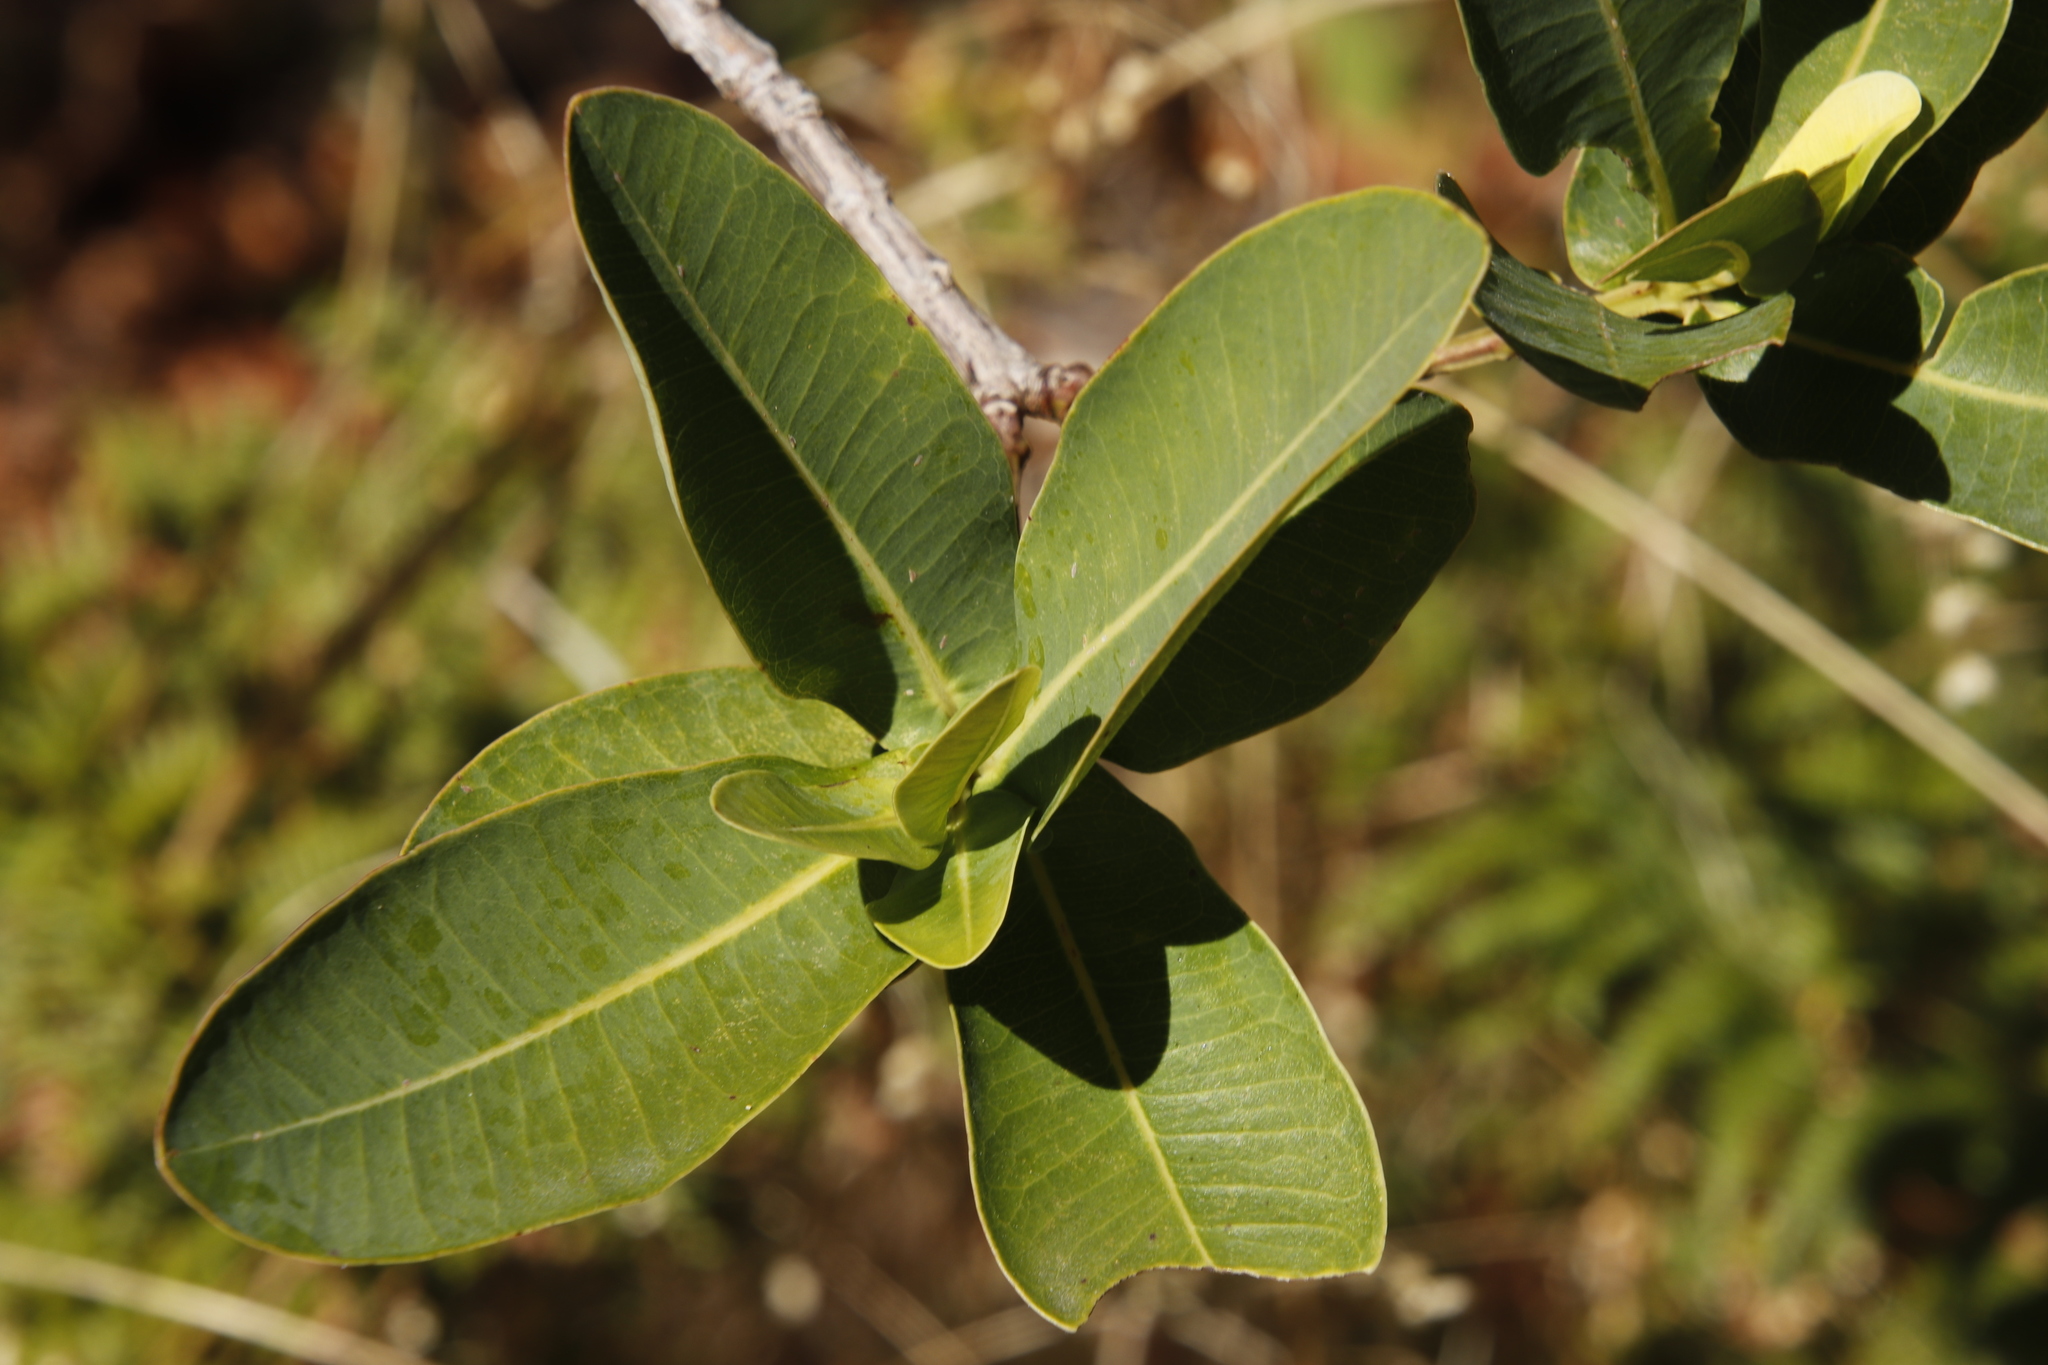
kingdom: Plantae
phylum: Tracheophyta
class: Magnoliopsida
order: Myrtales
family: Myrtaceae
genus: Syzygium
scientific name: Syzygium cordatum
